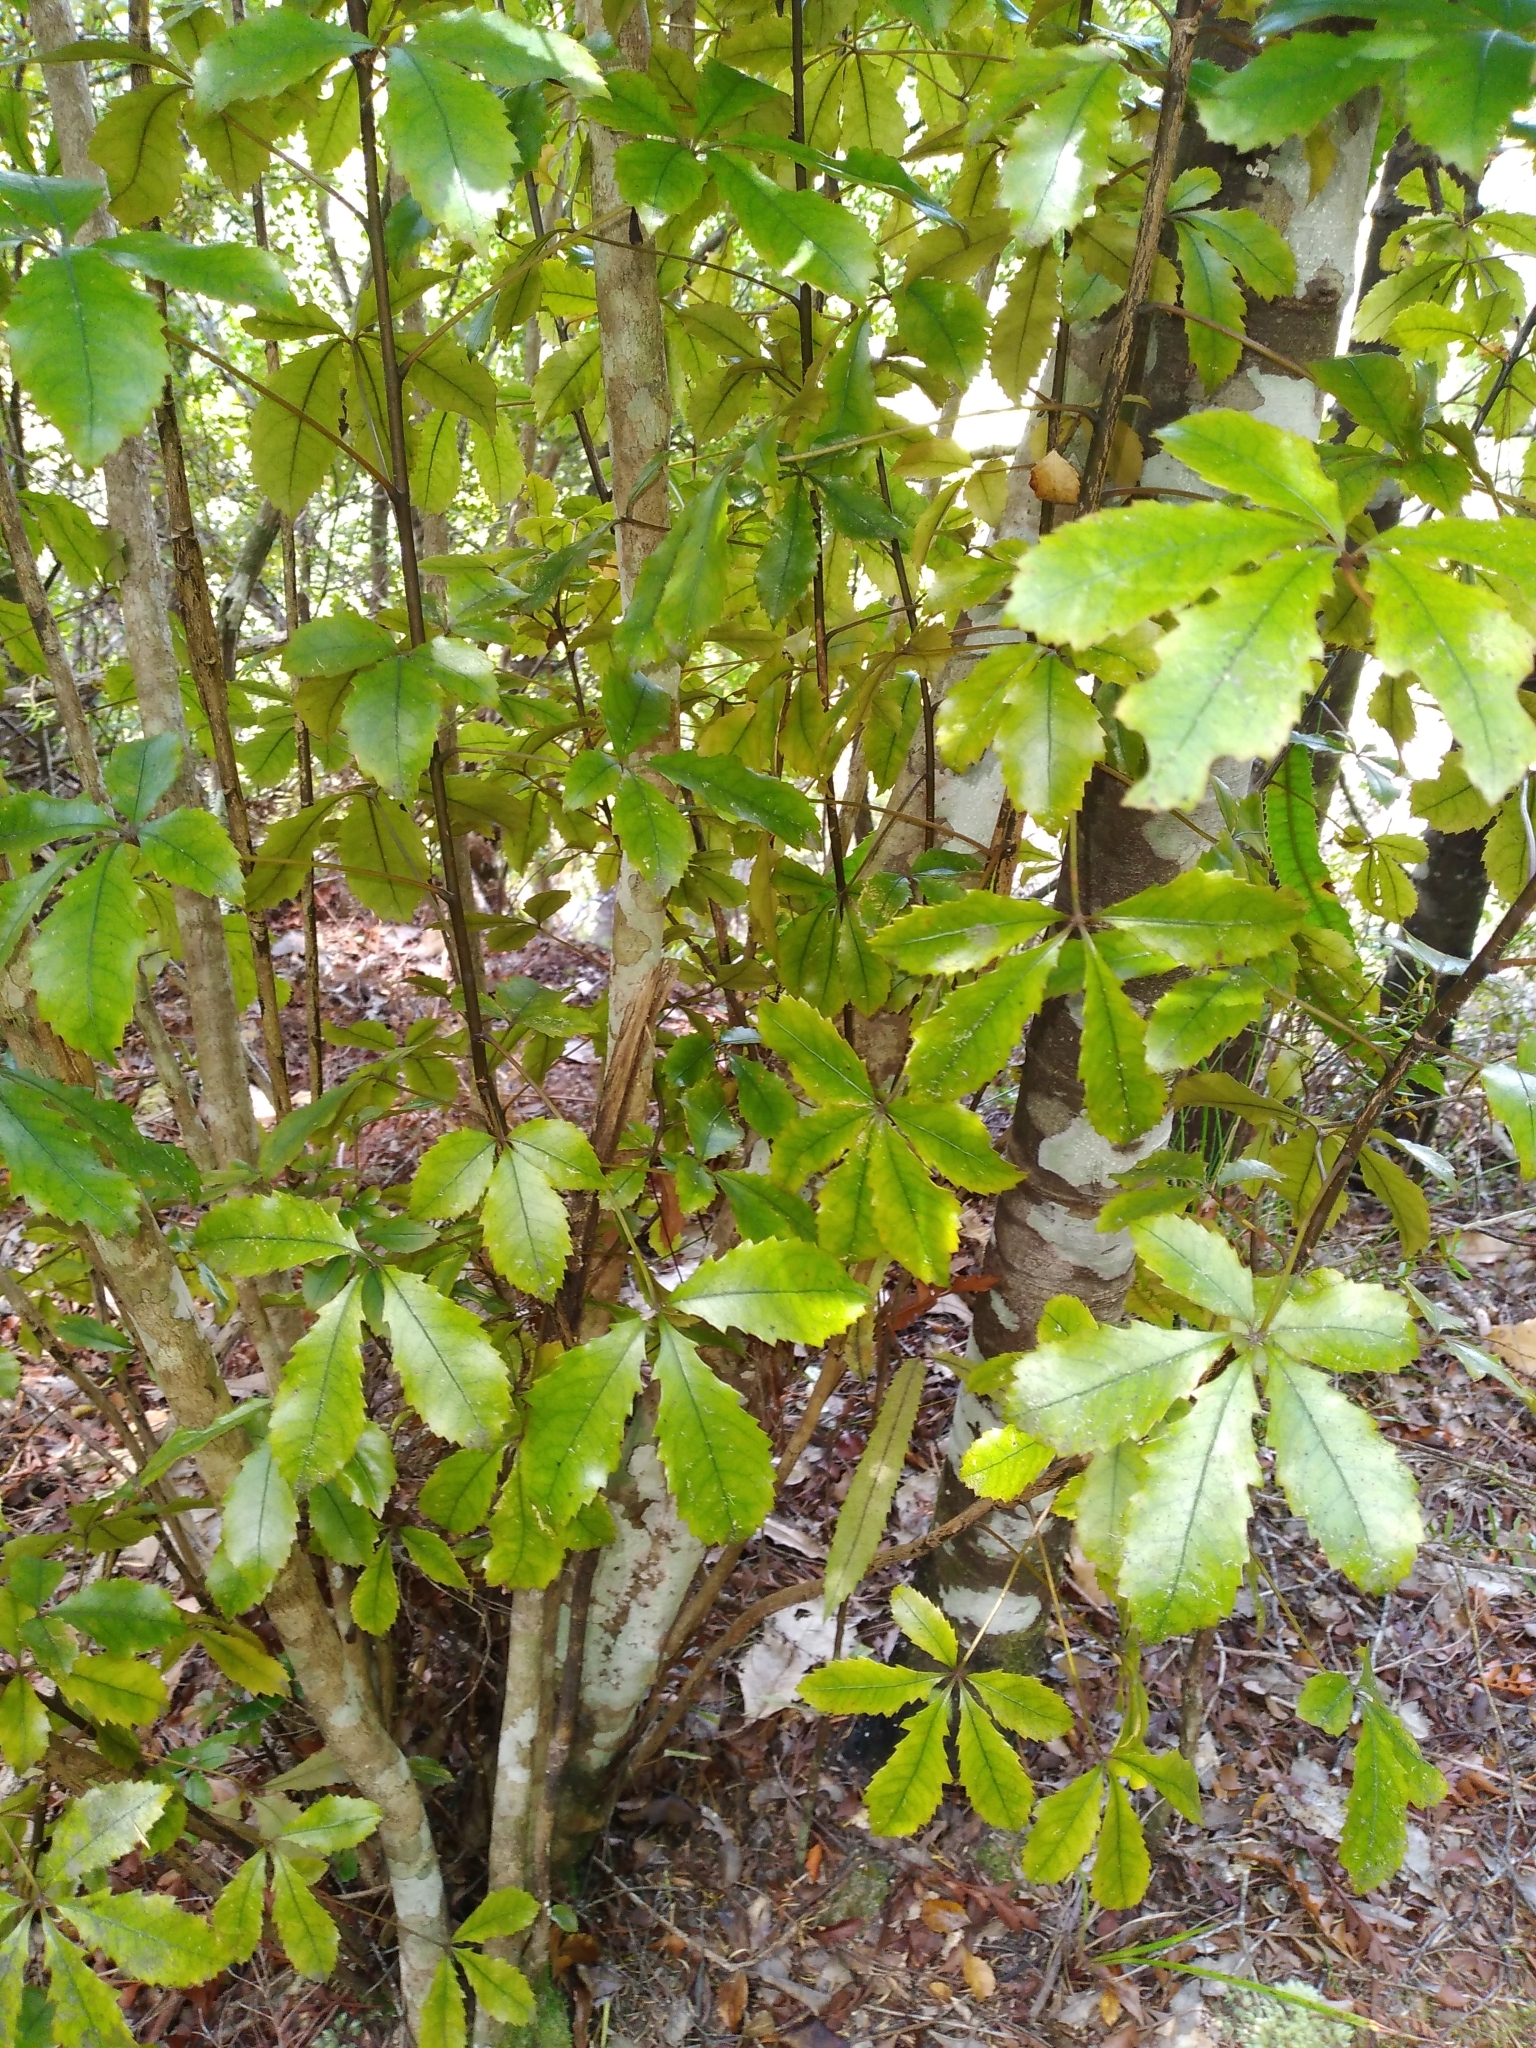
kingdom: Plantae
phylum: Tracheophyta
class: Magnoliopsida
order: Apiales
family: Araliaceae
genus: Pseudopanax
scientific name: Pseudopanax discolor
